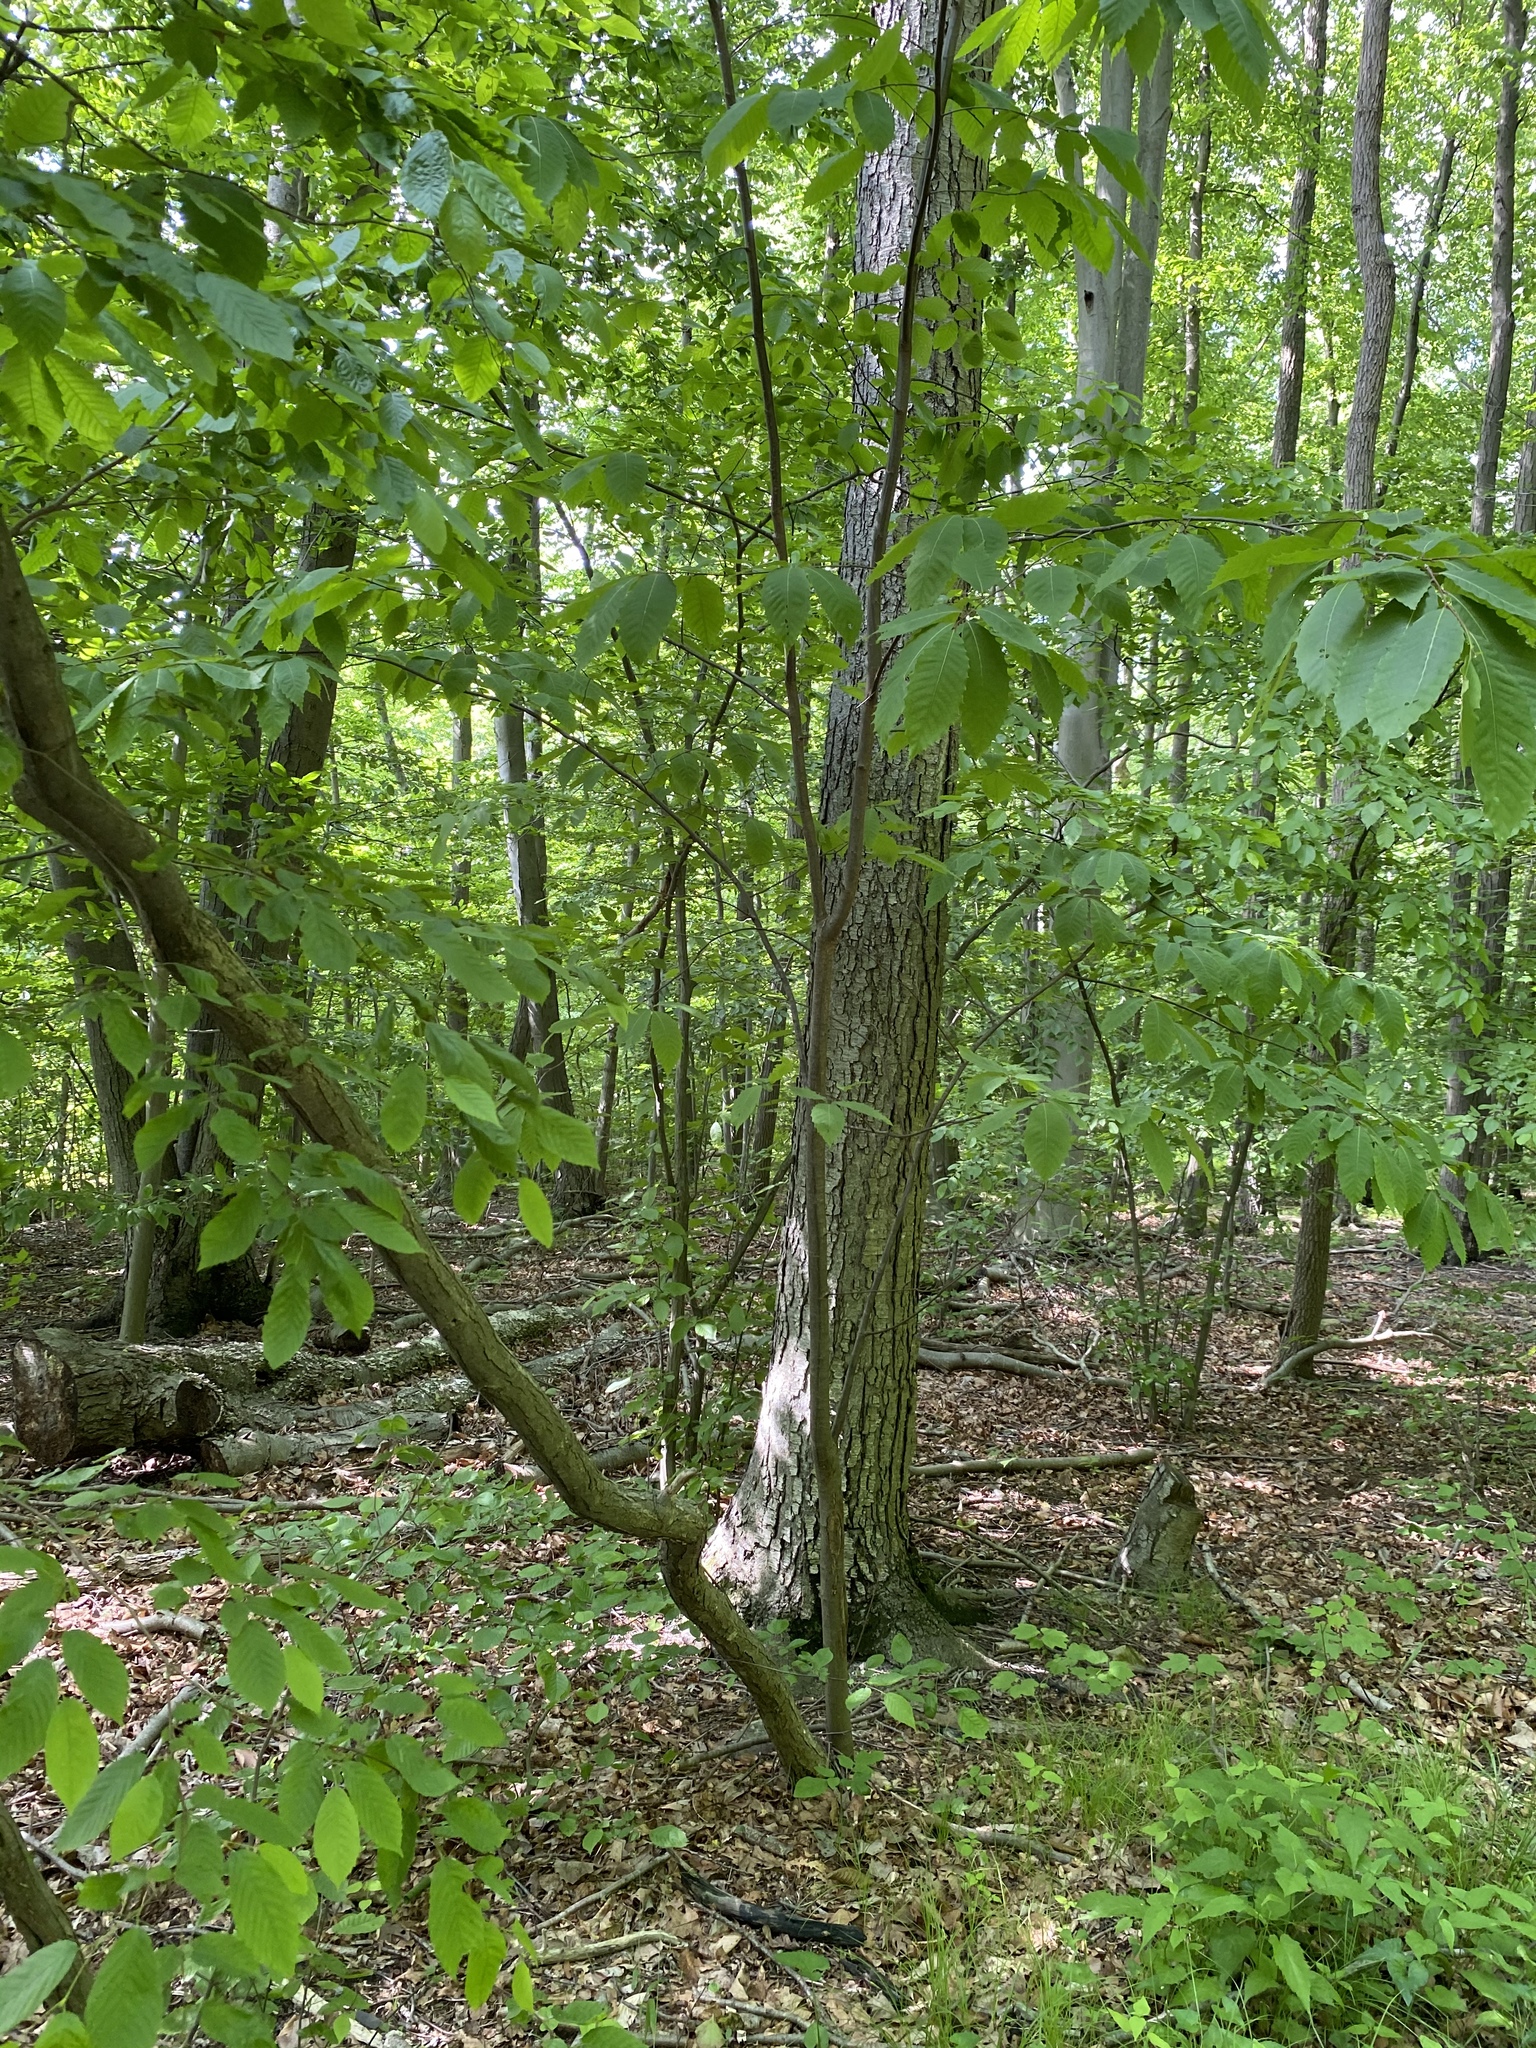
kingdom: Plantae
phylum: Tracheophyta
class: Magnoliopsida
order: Fagales
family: Fagaceae
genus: Castanea
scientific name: Castanea dentata
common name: American chestnut
